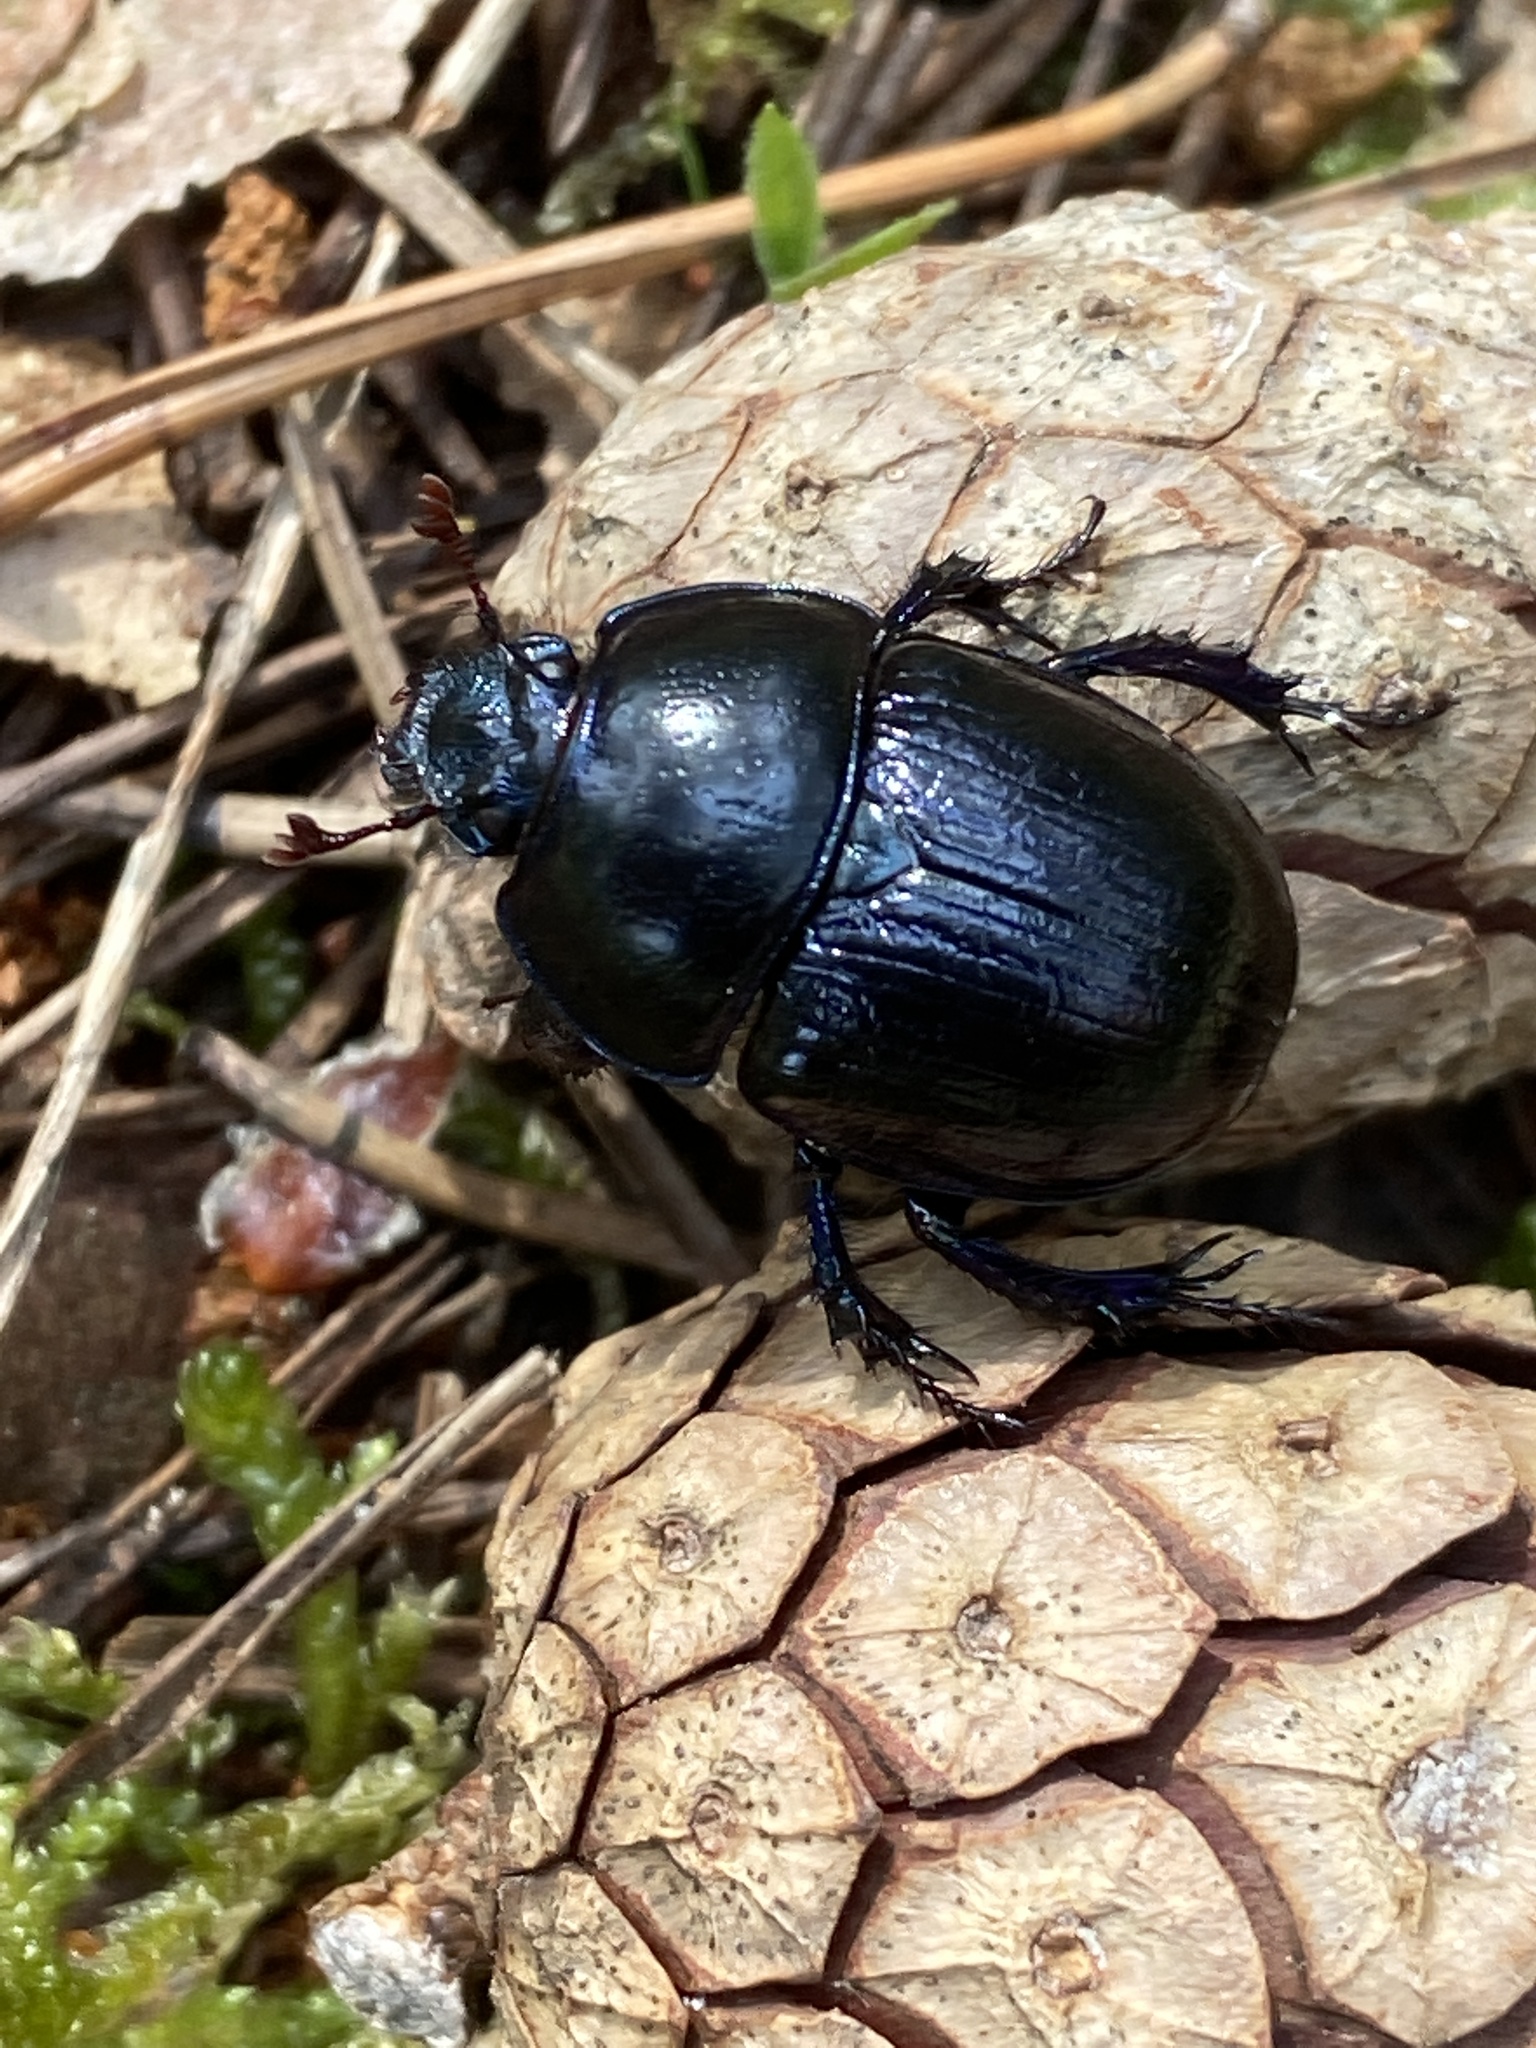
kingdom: Animalia
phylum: Arthropoda
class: Insecta
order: Coleoptera
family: Geotrupidae
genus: Anoplotrupes
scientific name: Anoplotrupes stercorosus
